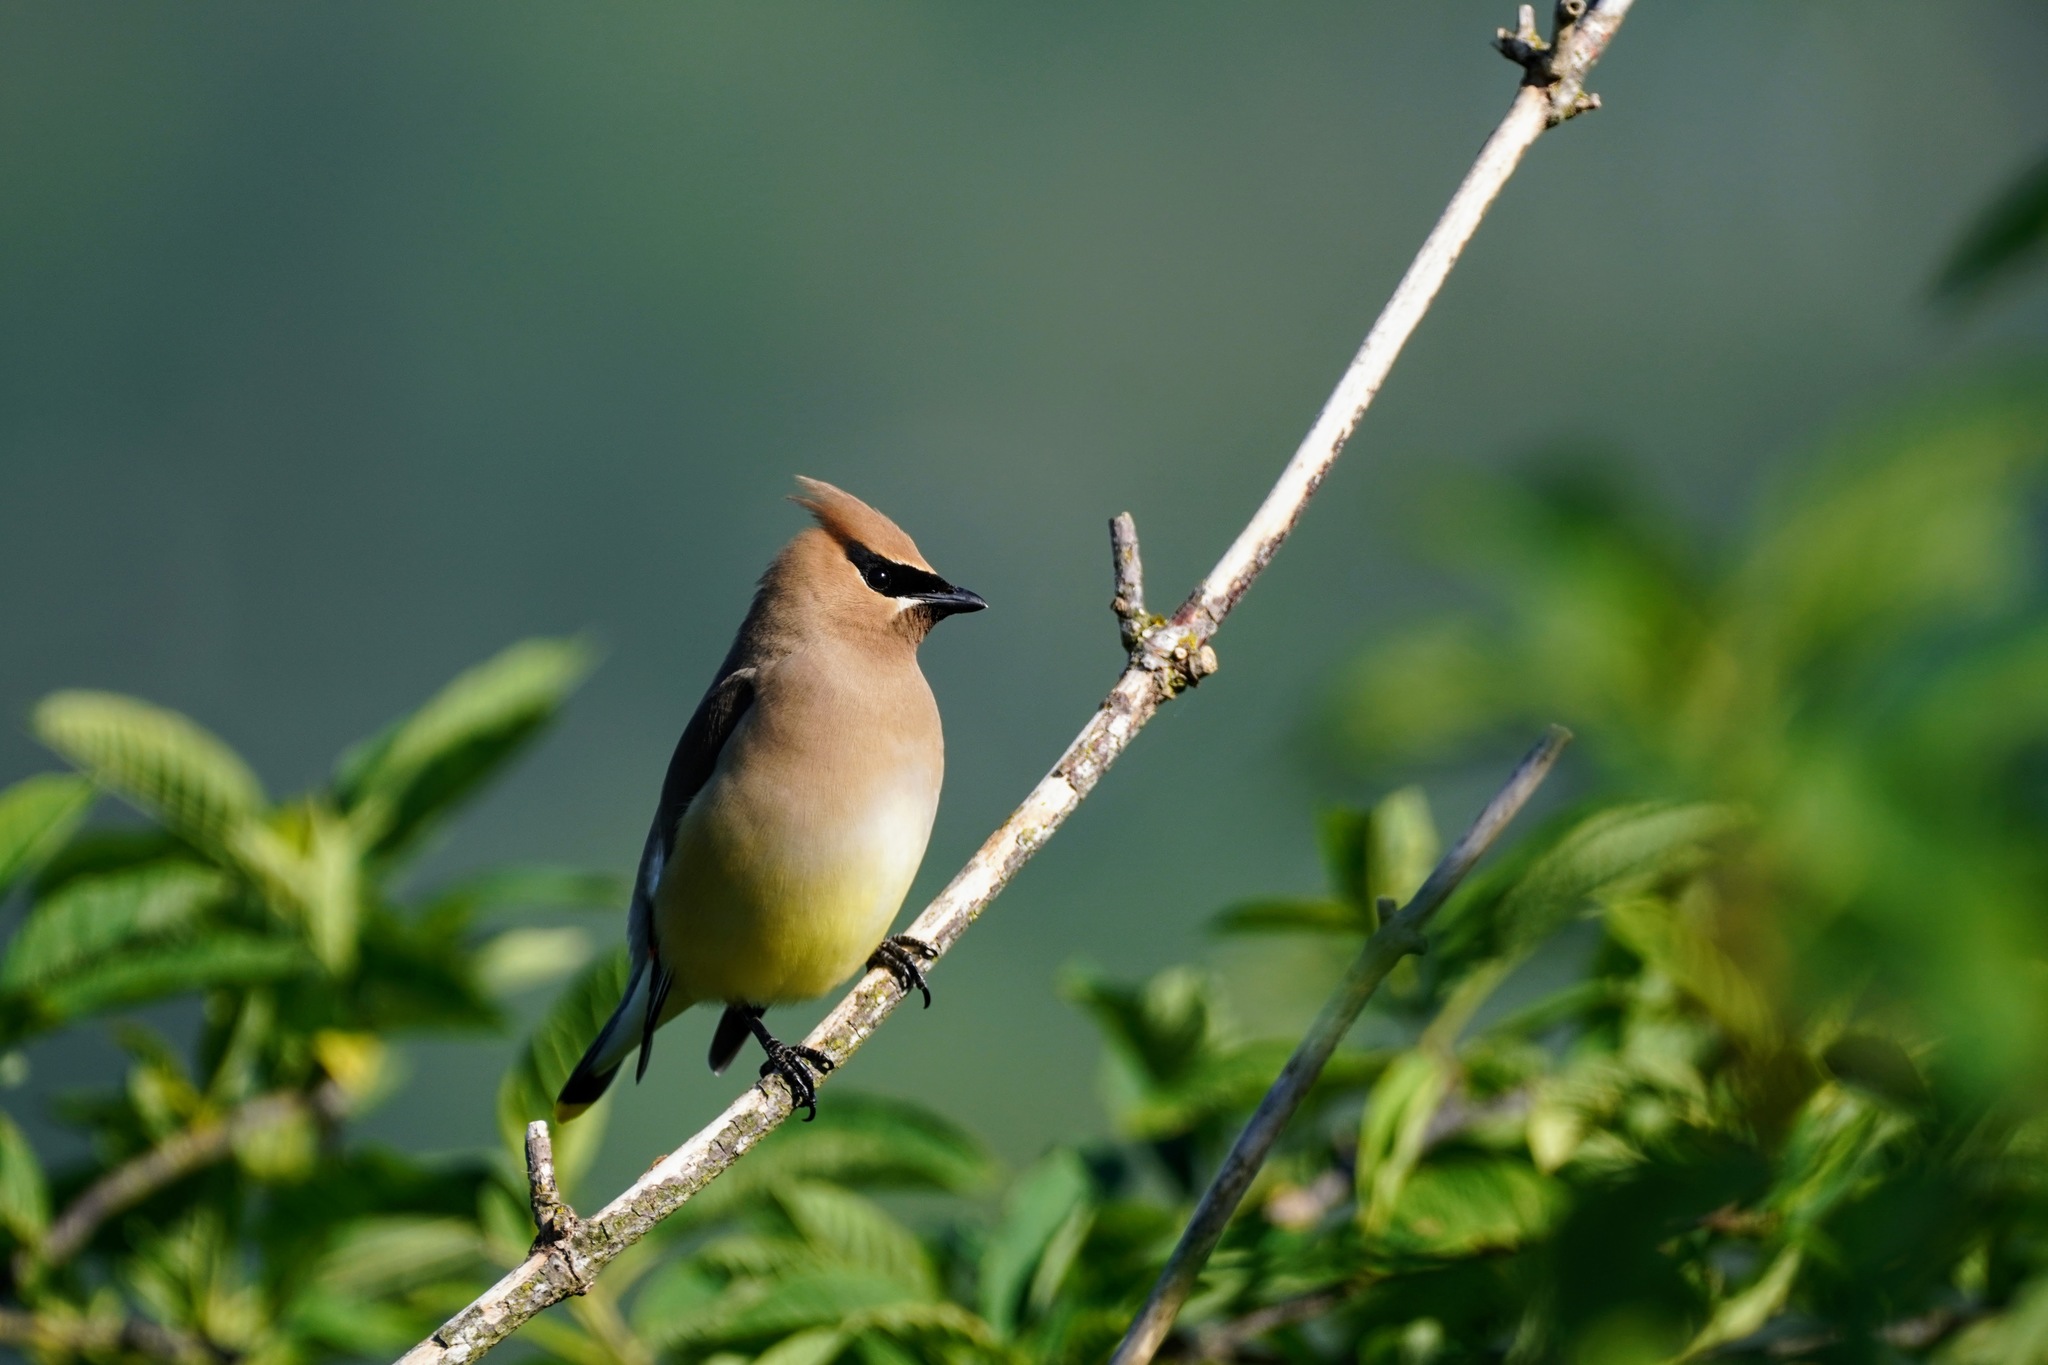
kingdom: Animalia
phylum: Chordata
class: Aves
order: Passeriformes
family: Bombycillidae
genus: Bombycilla
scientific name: Bombycilla cedrorum
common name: Cedar waxwing
